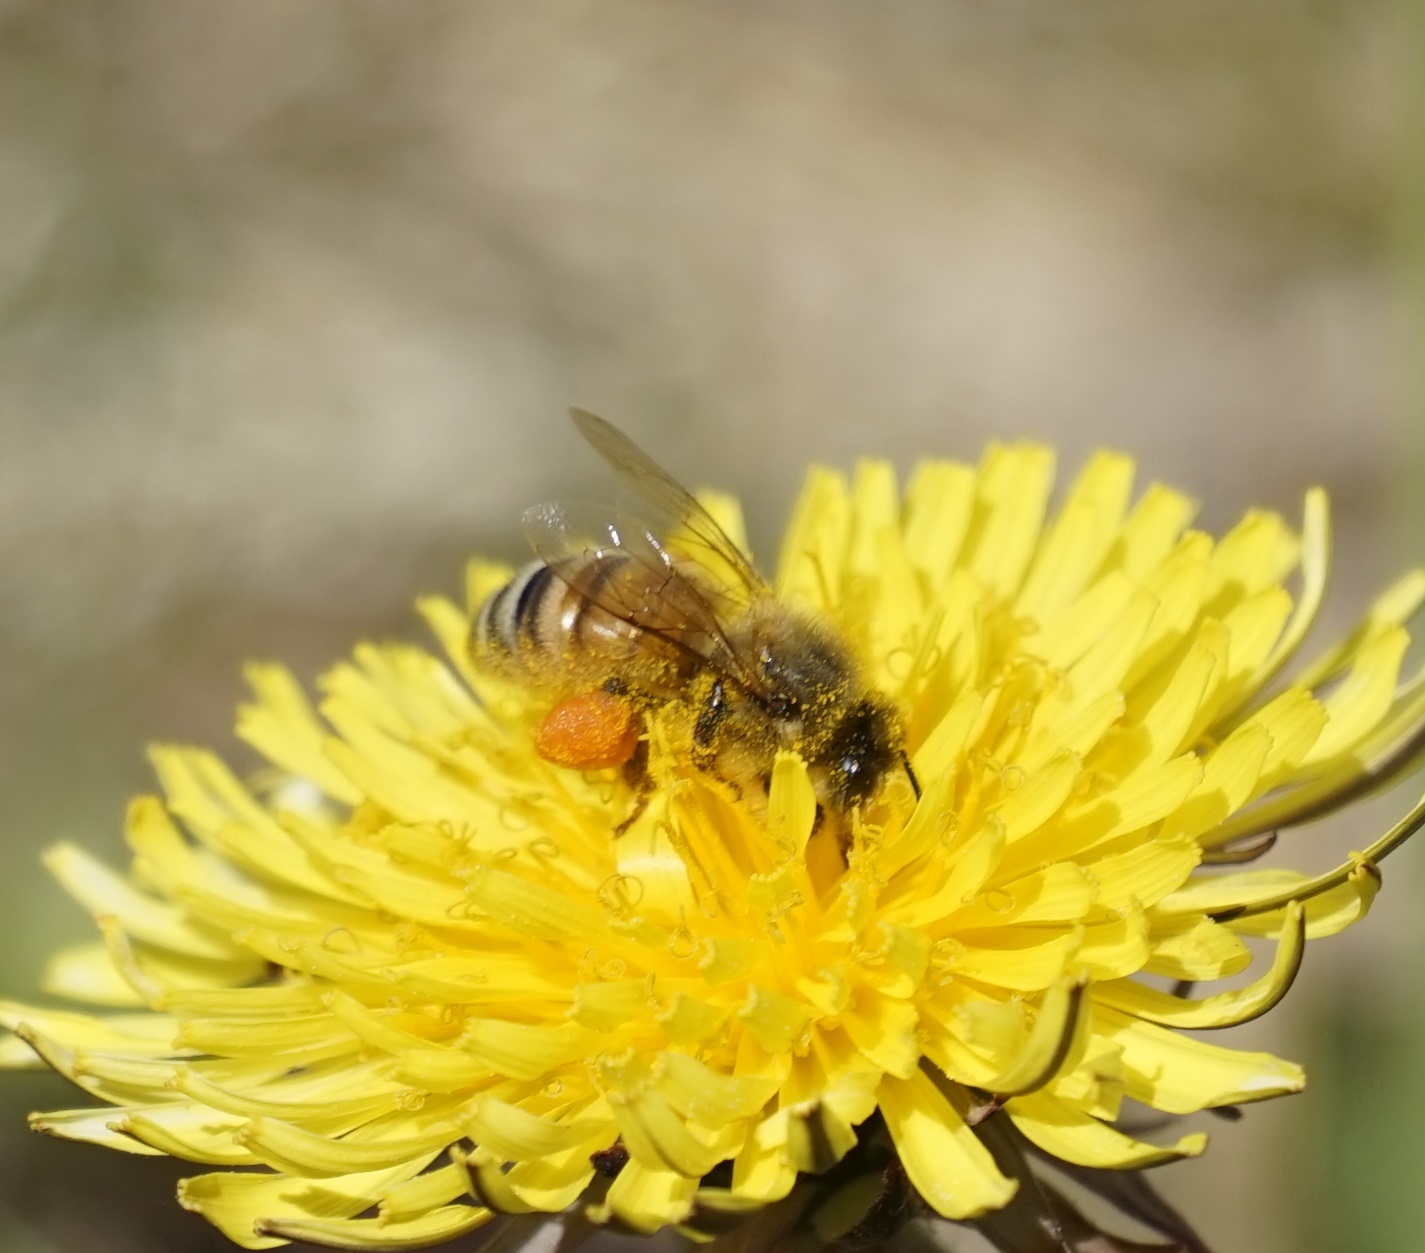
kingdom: Animalia
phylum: Arthropoda
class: Insecta
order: Hymenoptera
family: Apidae
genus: Apis
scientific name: Apis mellifera
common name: Honey bee
